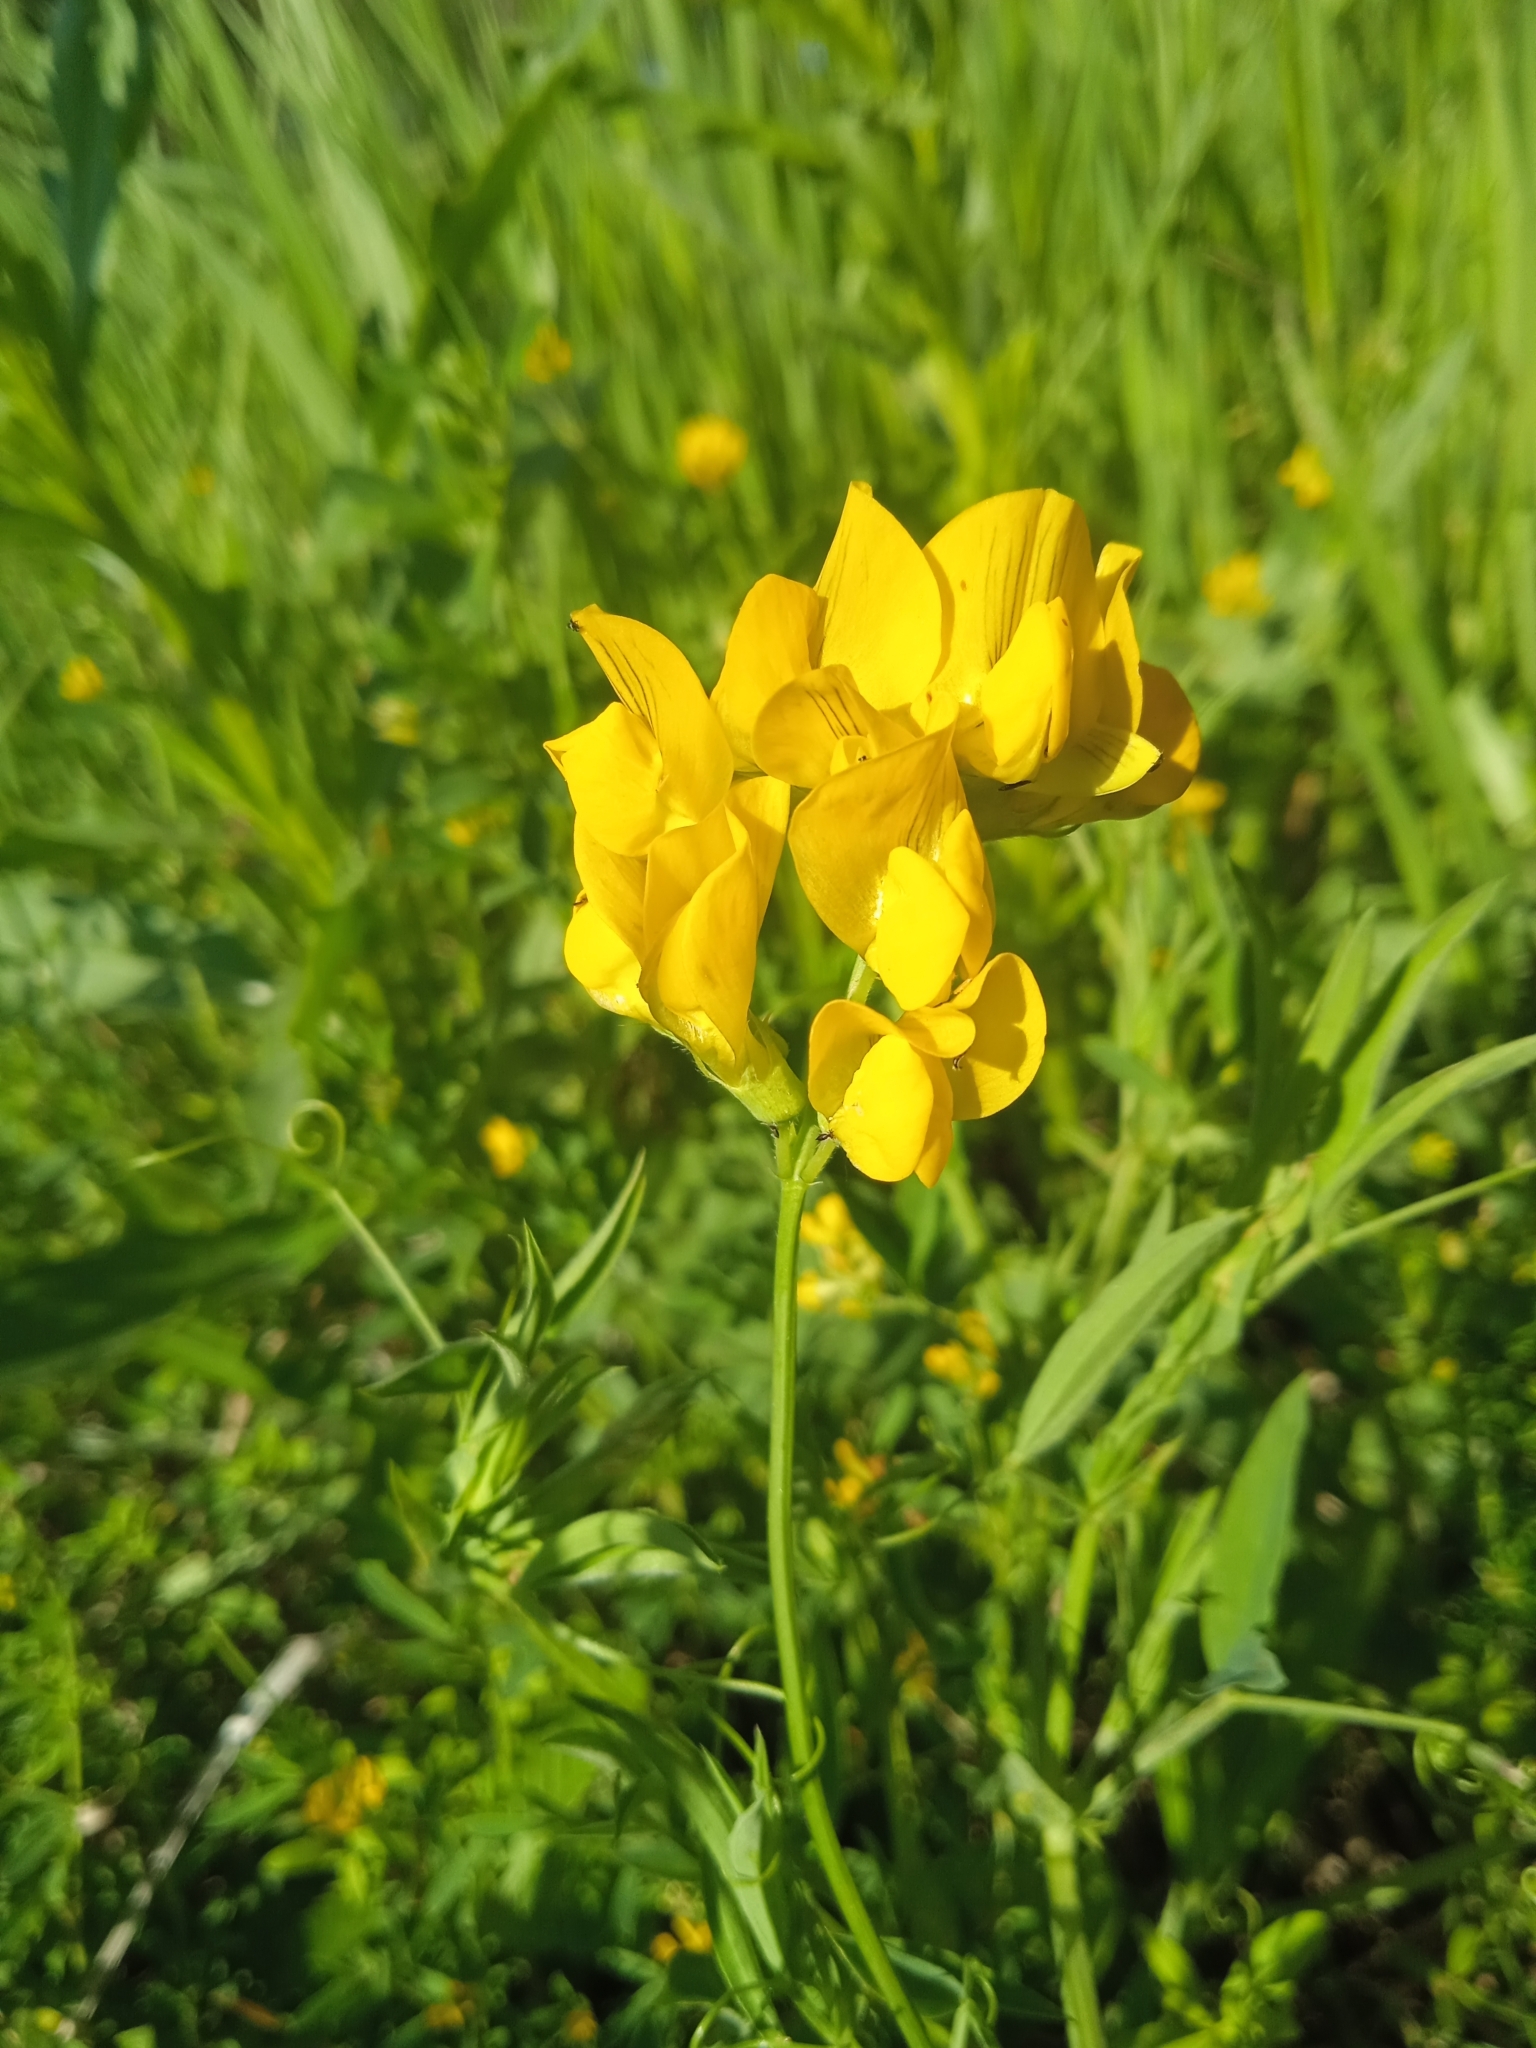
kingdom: Plantae
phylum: Tracheophyta
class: Magnoliopsida
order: Fabales
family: Fabaceae
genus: Lathyrus
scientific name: Lathyrus pratensis
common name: Meadow vetchling
